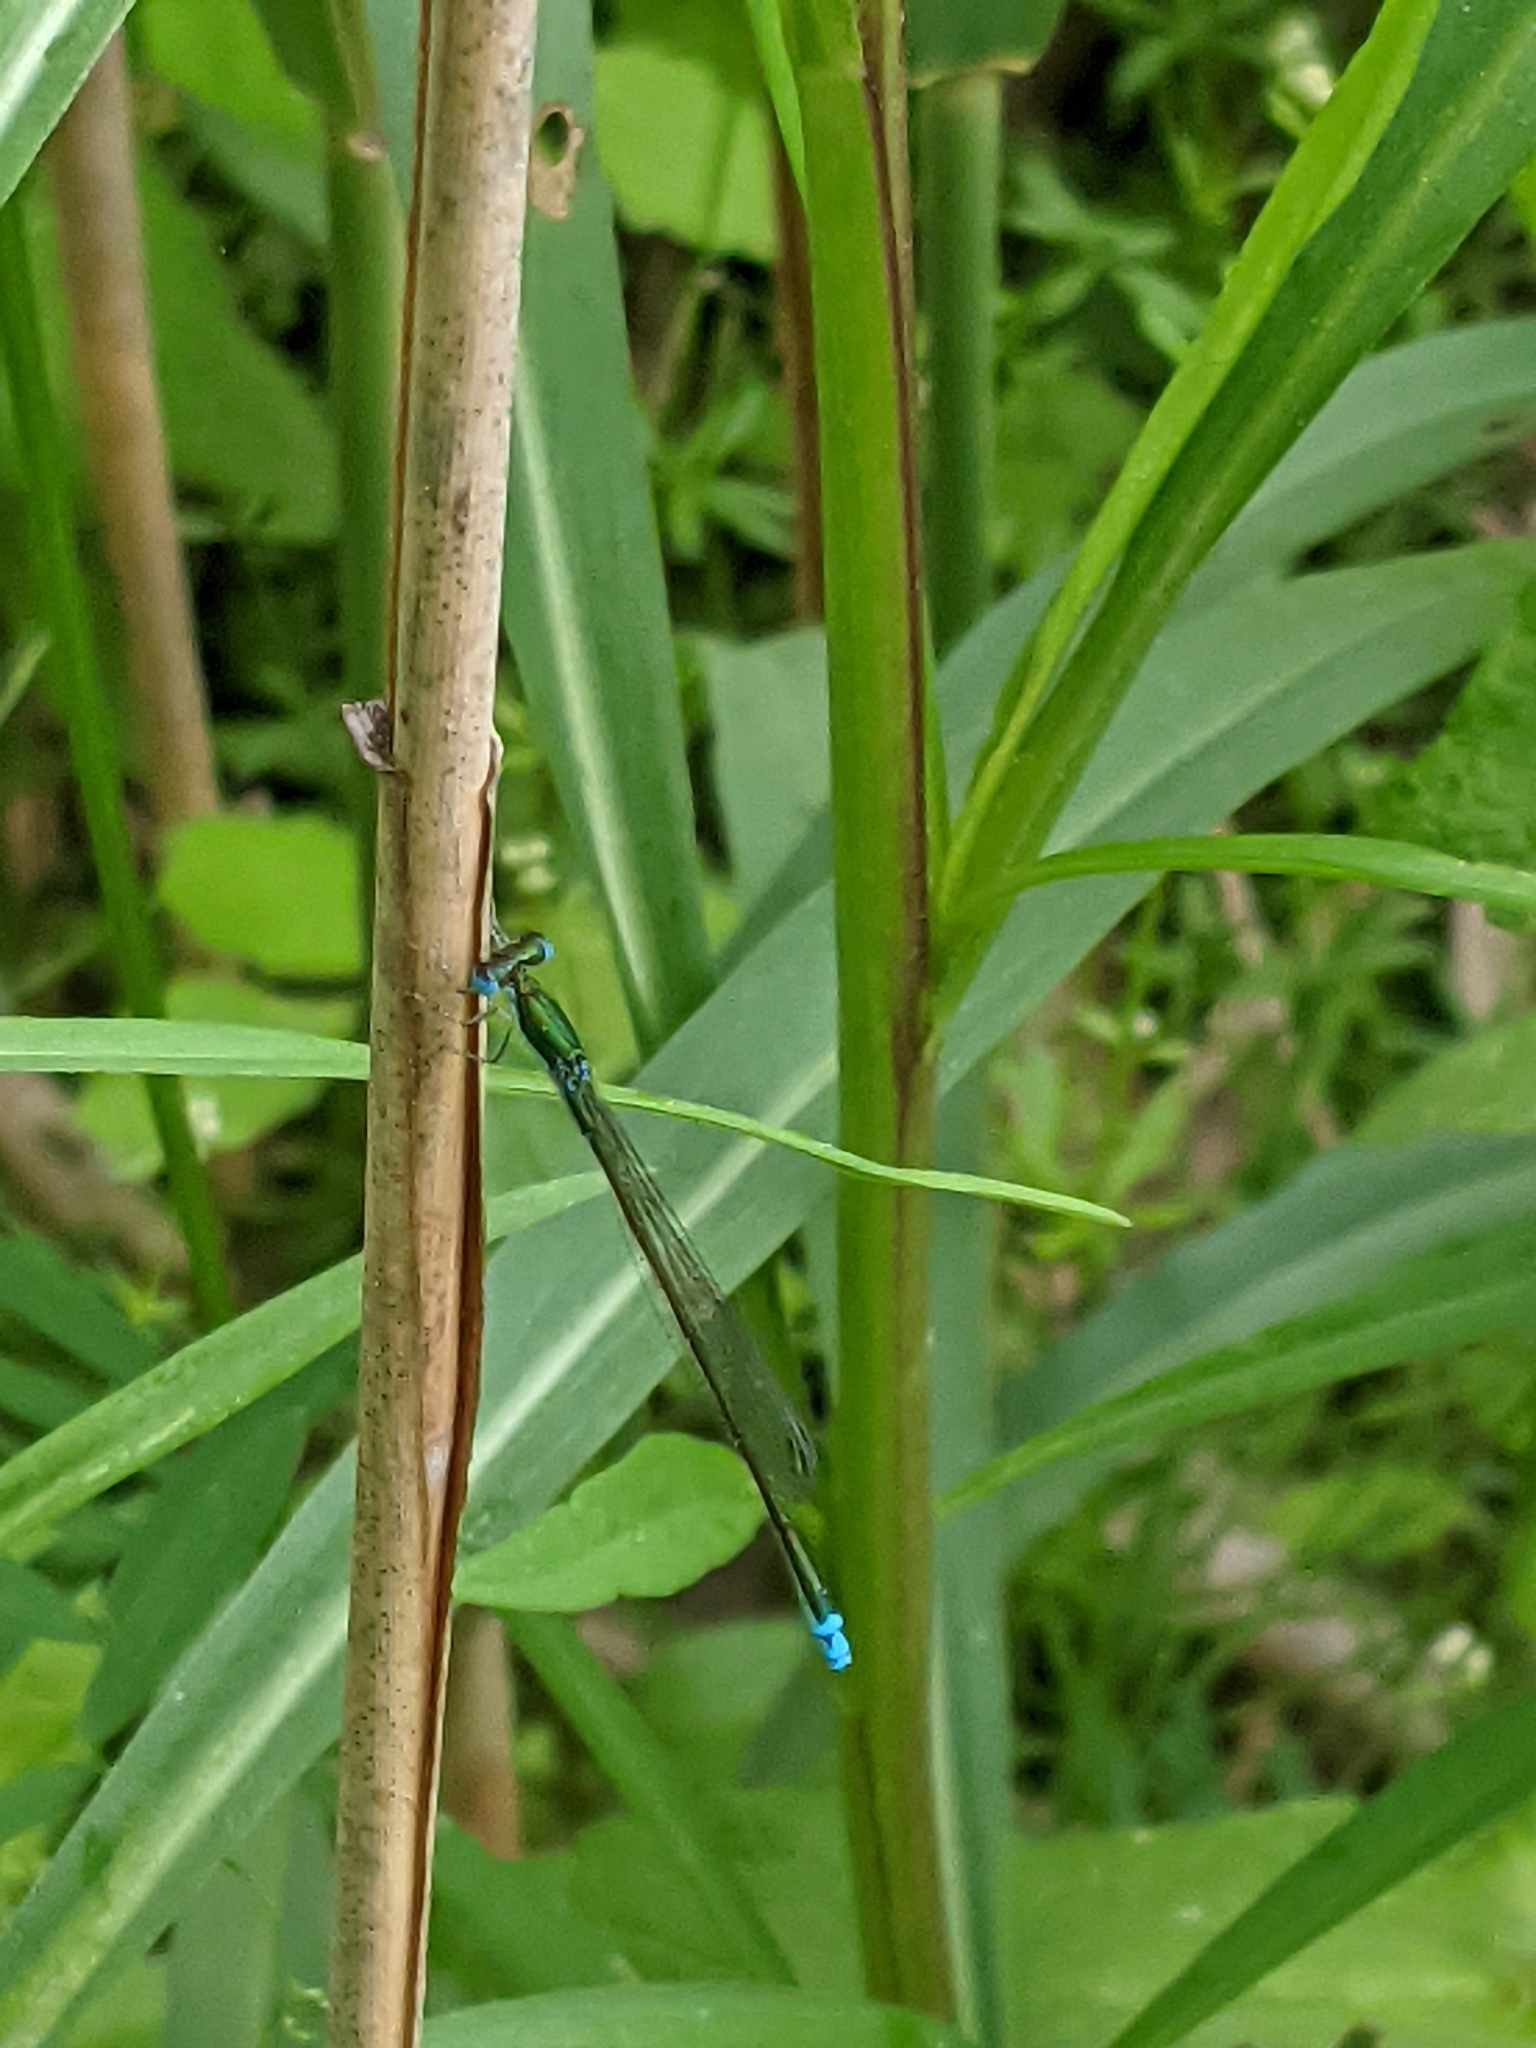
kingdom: Animalia
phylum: Arthropoda
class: Insecta
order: Odonata
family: Coenagrionidae
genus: Nehalennia
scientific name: Nehalennia irene
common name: Sedge sprite
